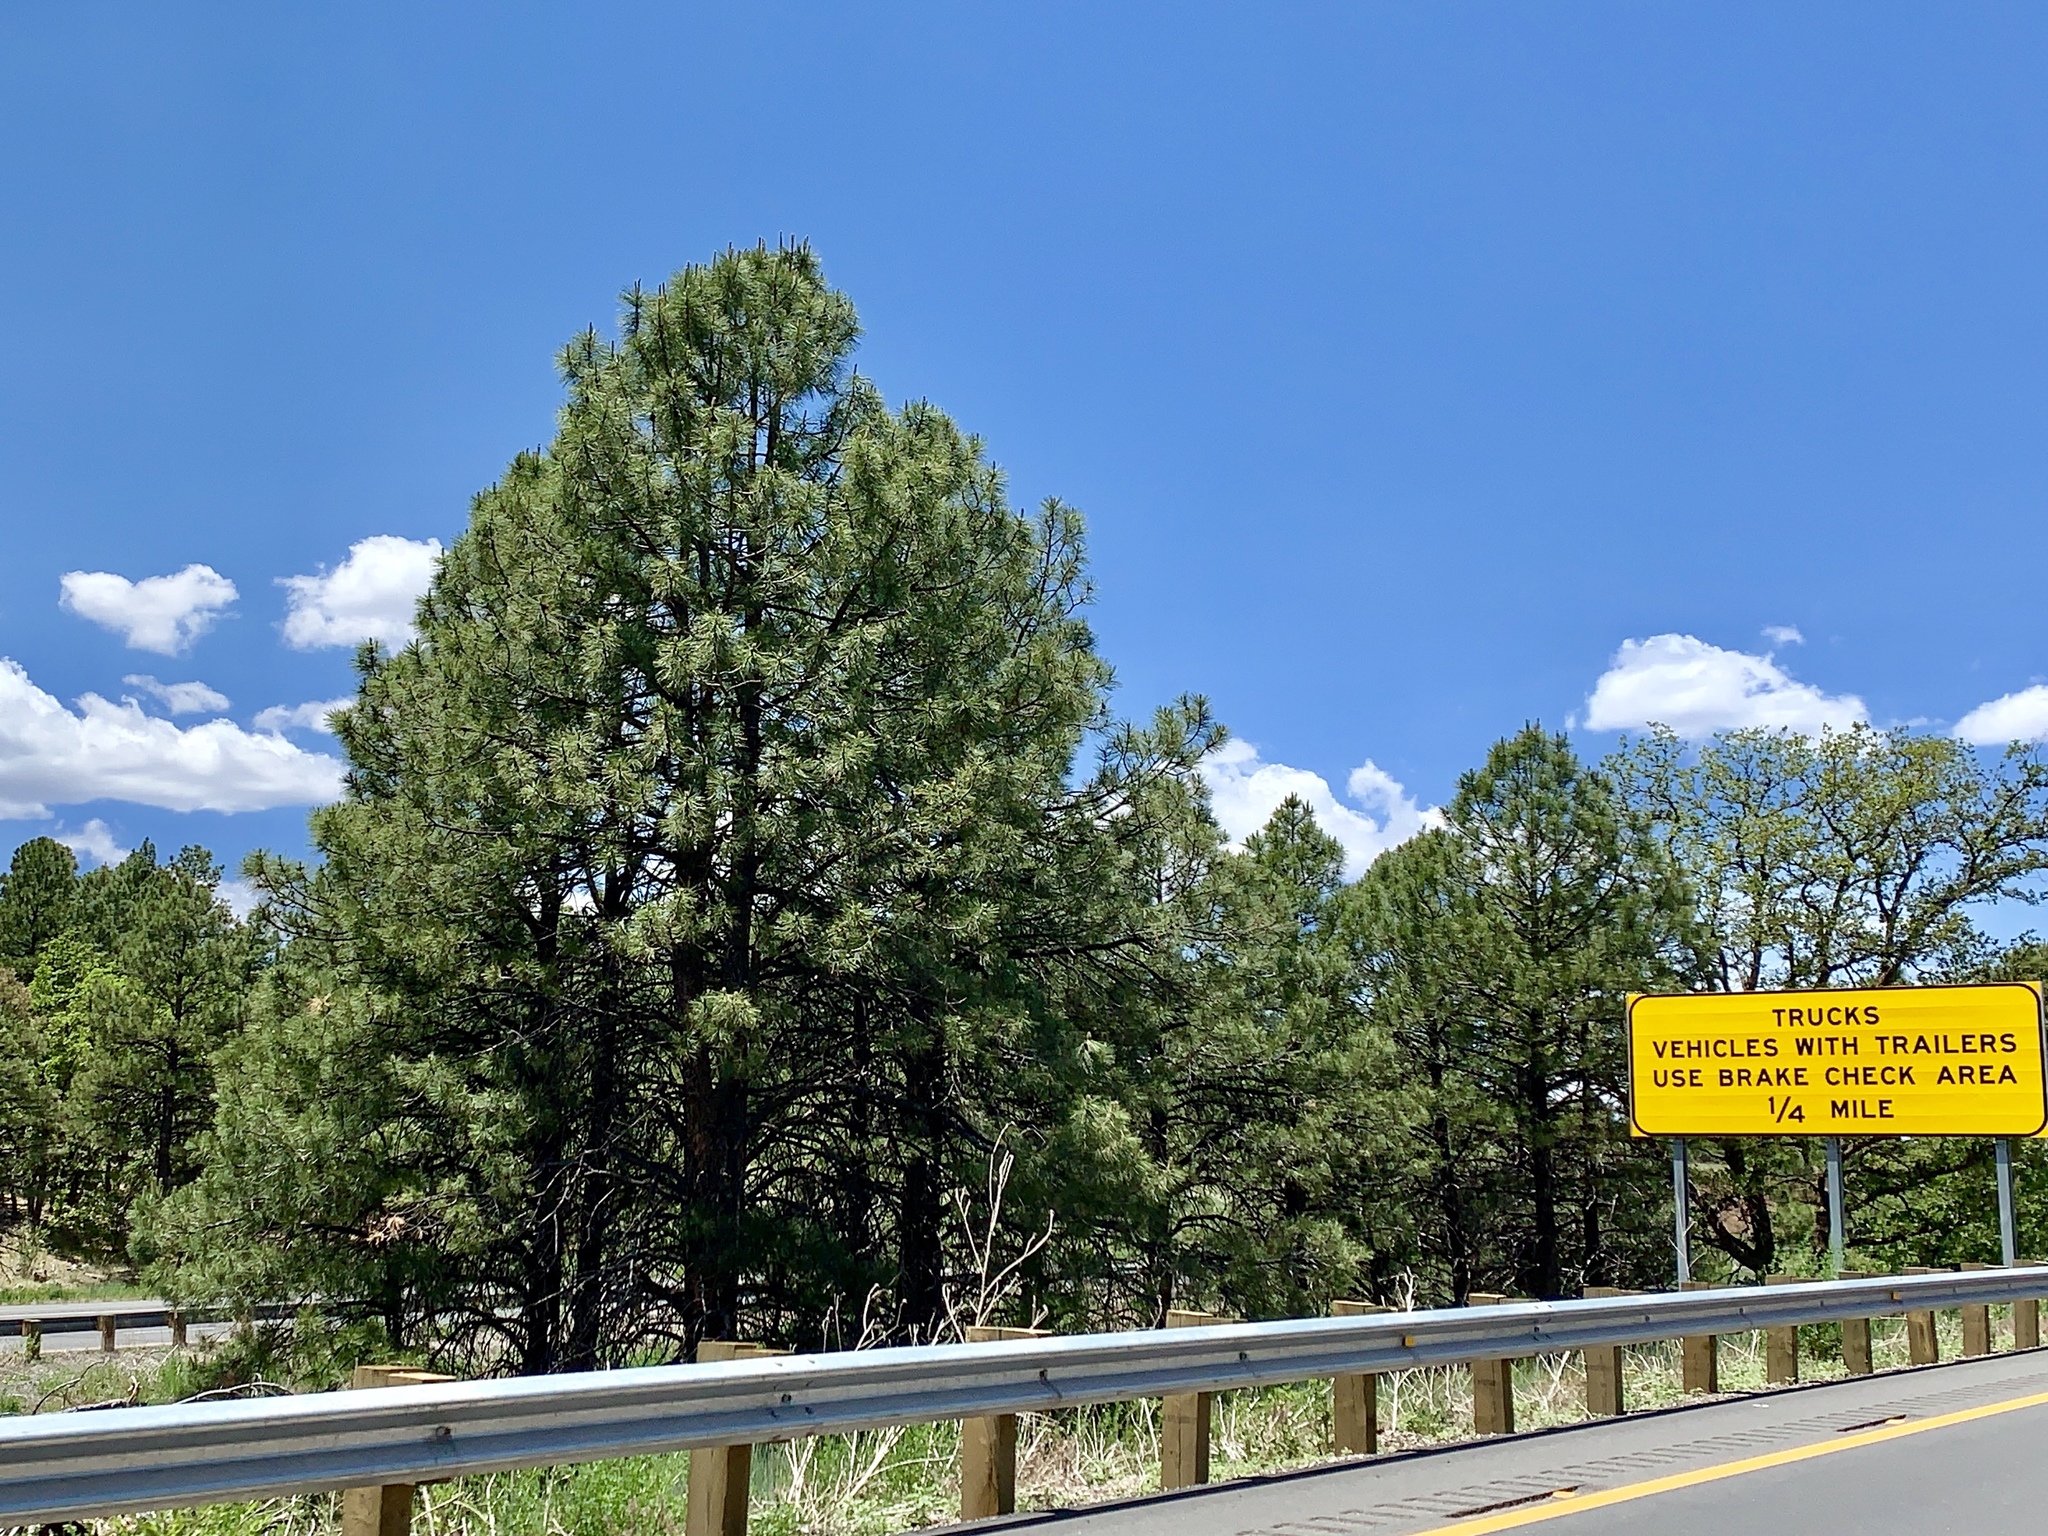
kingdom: Plantae
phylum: Tracheophyta
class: Pinopsida
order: Pinales
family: Pinaceae
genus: Pinus
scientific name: Pinus ponderosa
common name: Western yellow-pine
